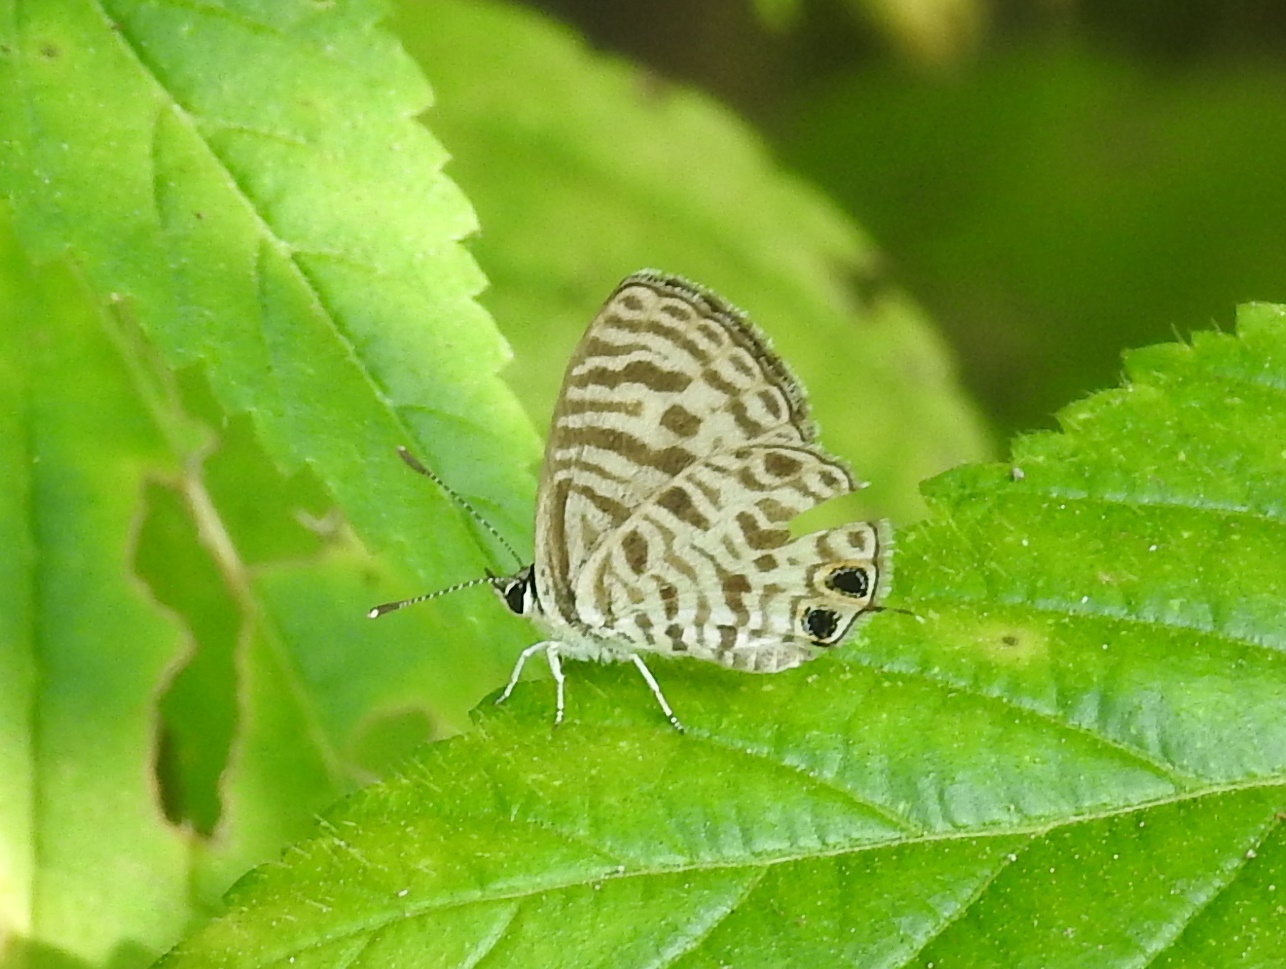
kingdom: Animalia
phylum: Arthropoda
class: Insecta
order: Lepidoptera
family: Lycaenidae
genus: Leptotes
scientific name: Leptotes plinius
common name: Zebra blue
